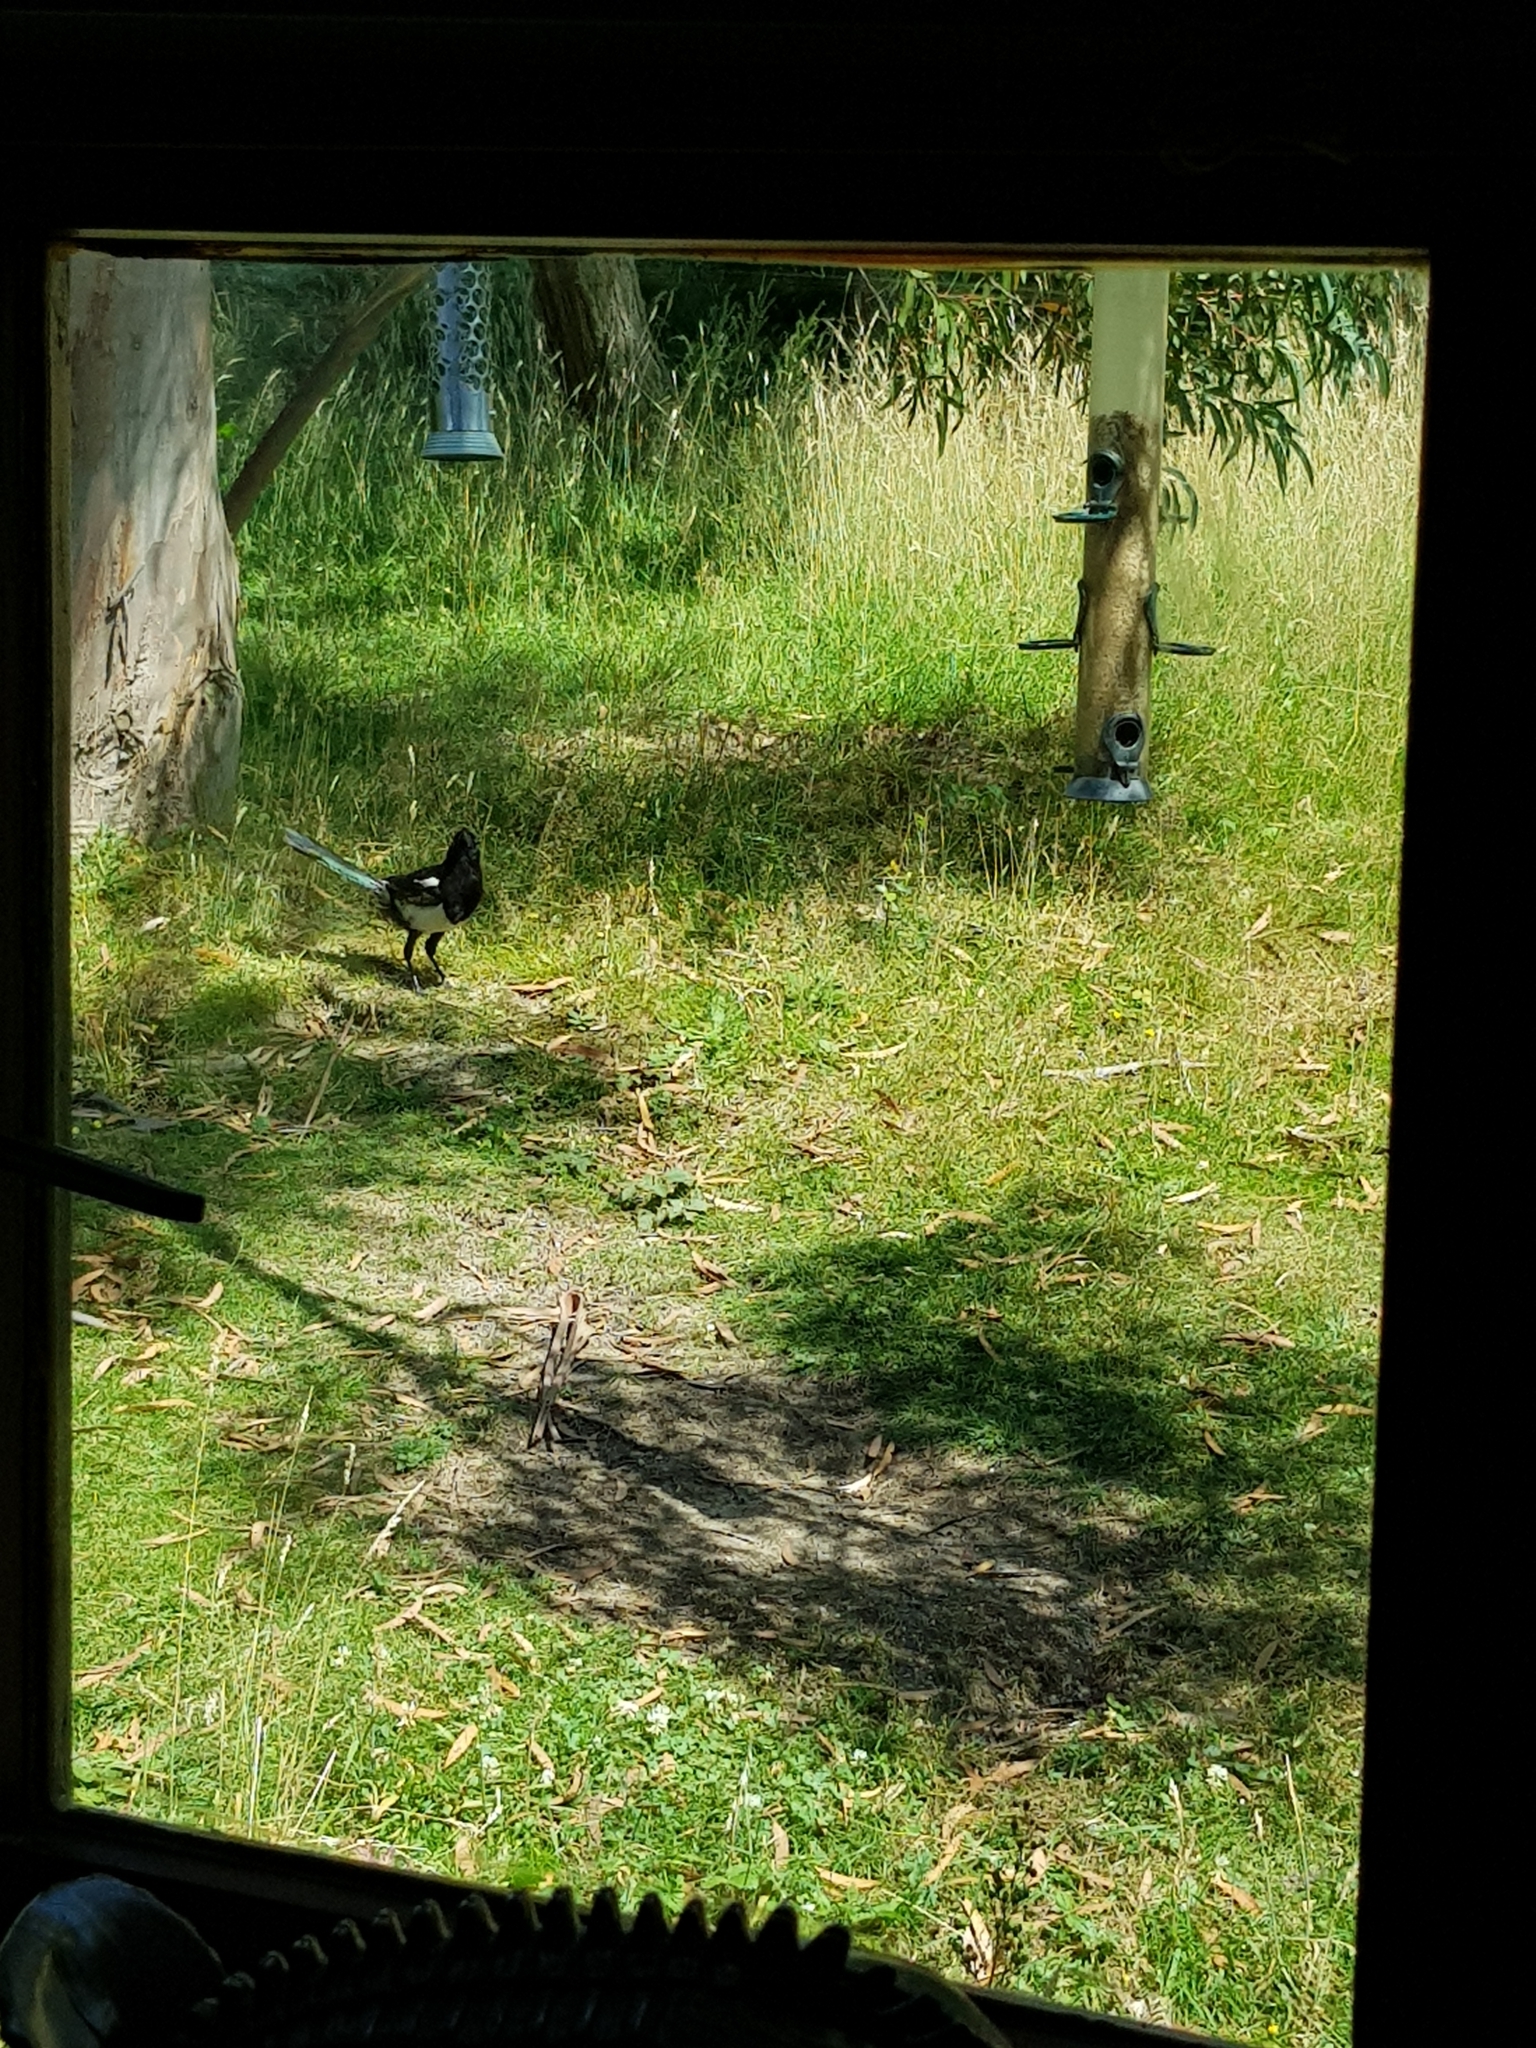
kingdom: Animalia
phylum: Chordata
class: Aves
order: Passeriformes
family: Corvidae
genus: Pica
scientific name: Pica pica
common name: Eurasian magpie
